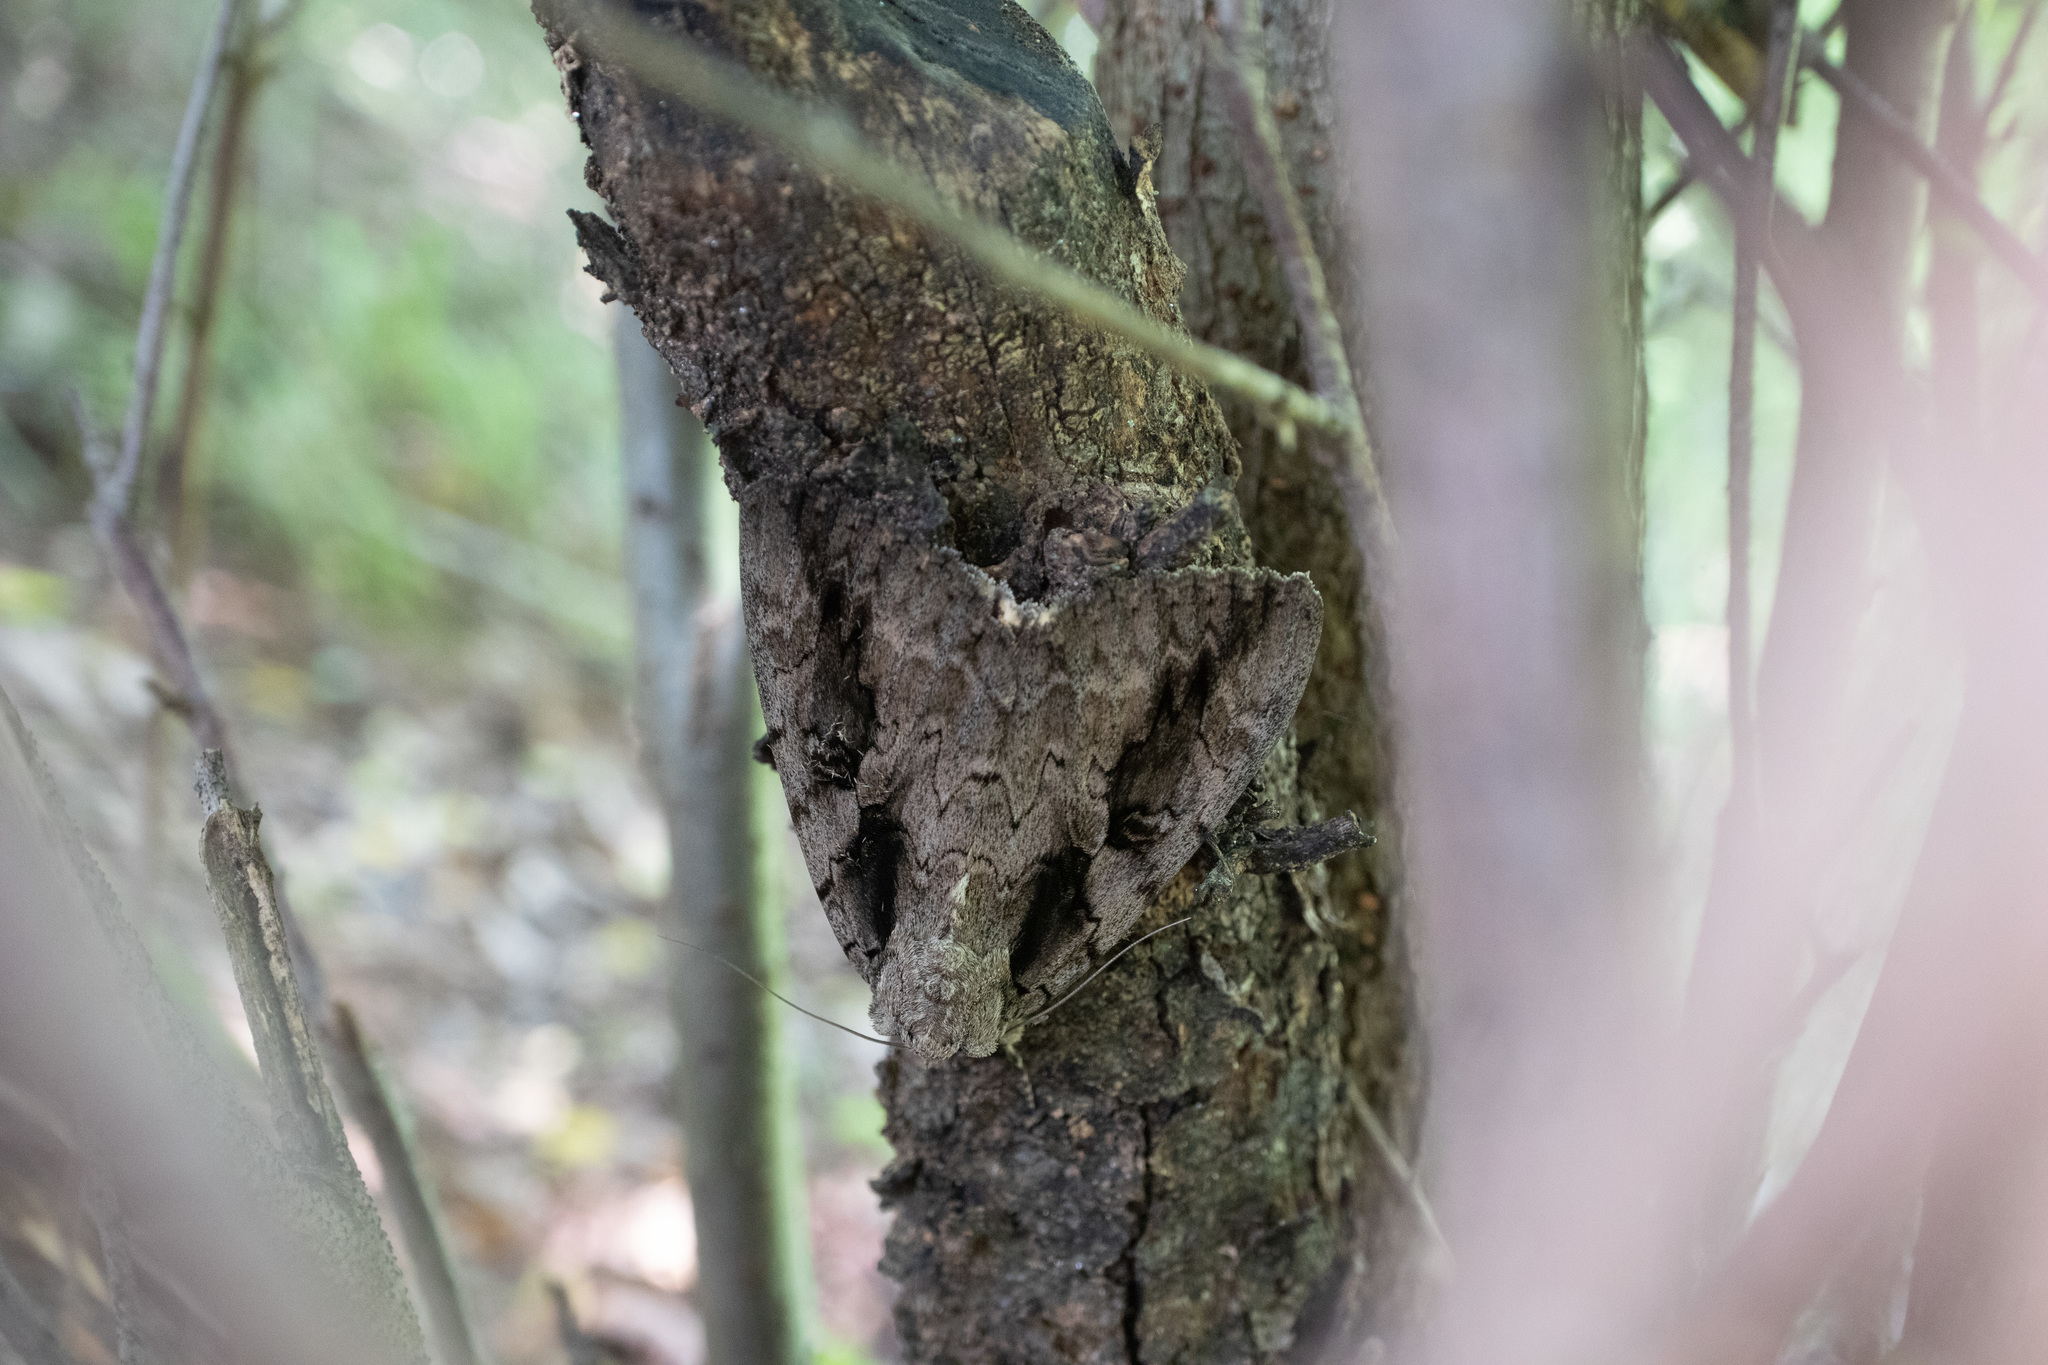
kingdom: Animalia
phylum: Arthropoda
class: Insecta
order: Lepidoptera
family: Erebidae
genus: Catocala
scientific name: Catocala amatrix
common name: Sweetheart underwing
